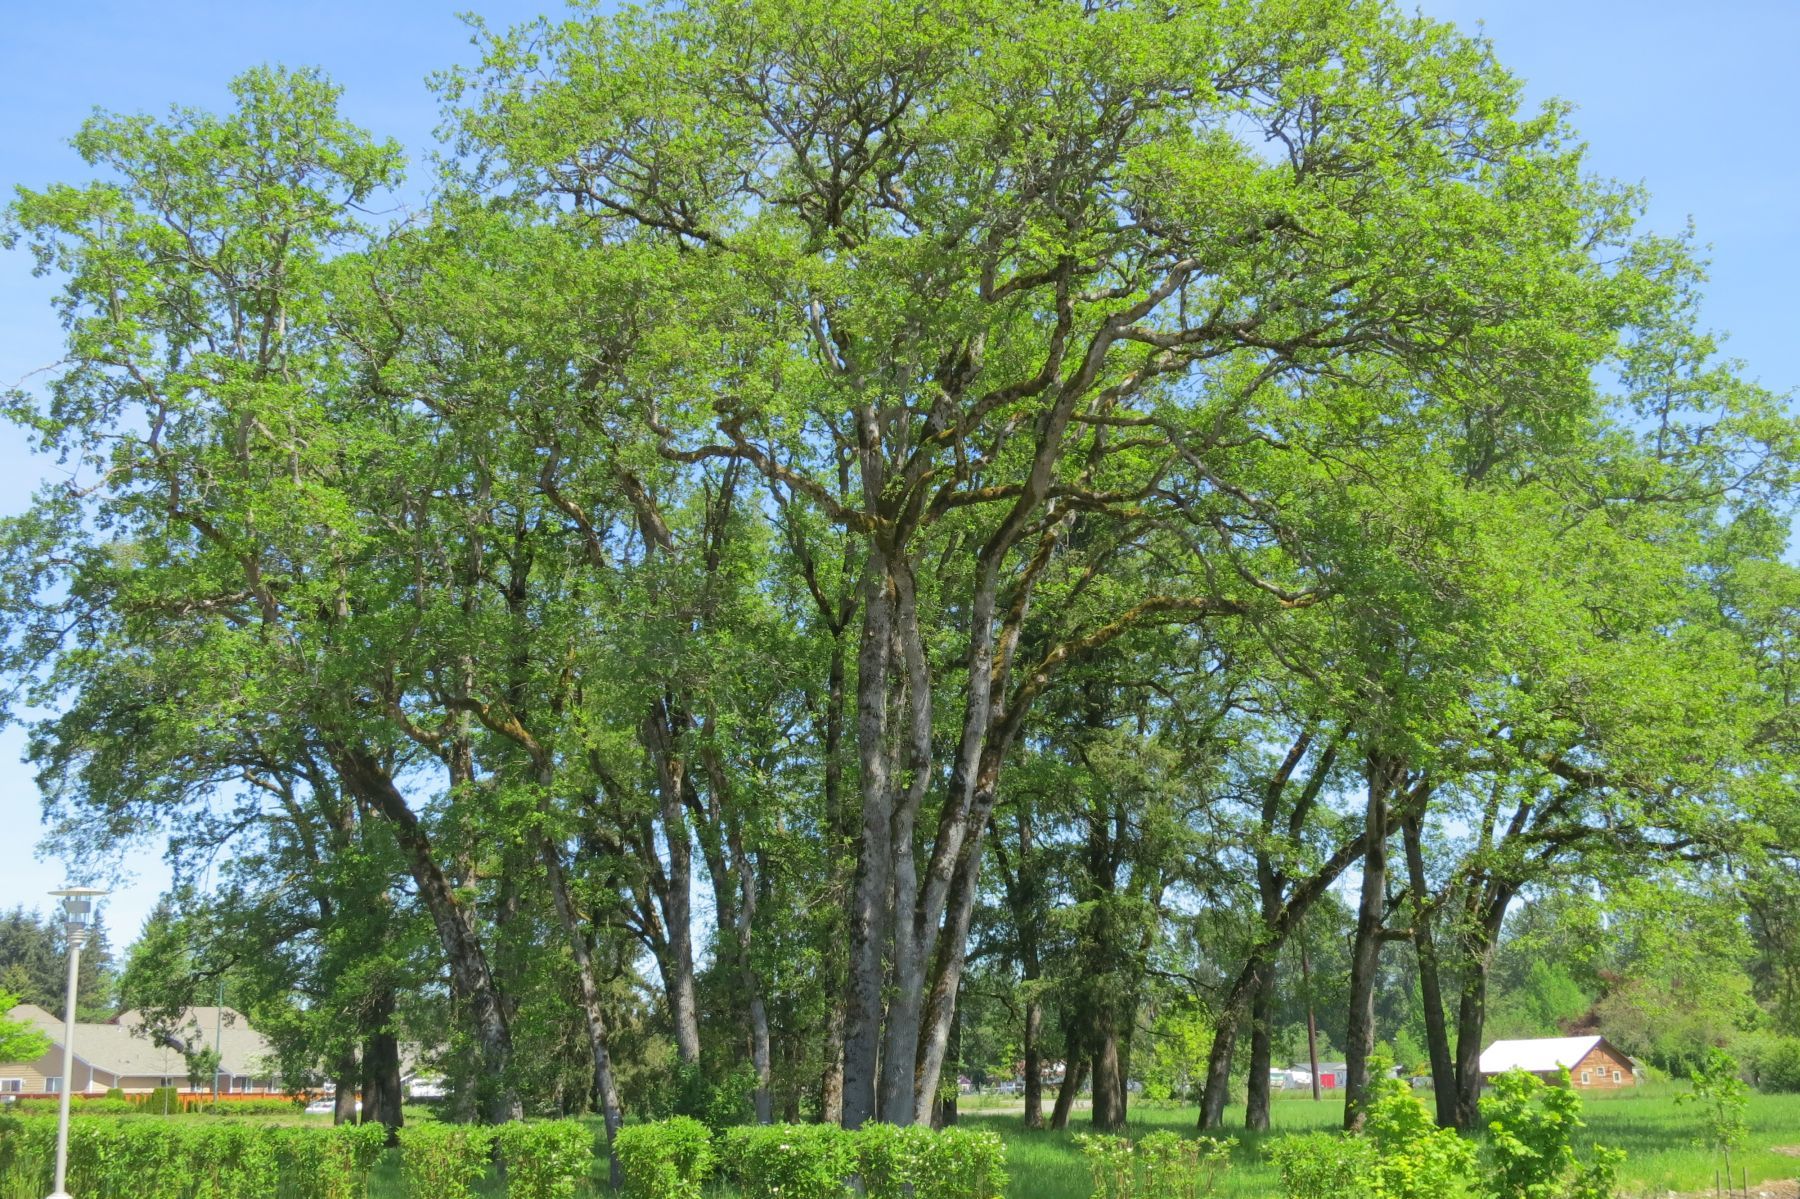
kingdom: Plantae
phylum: Tracheophyta
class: Magnoliopsida
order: Fagales
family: Fagaceae
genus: Quercus
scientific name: Quercus garryana
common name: Garry oak
